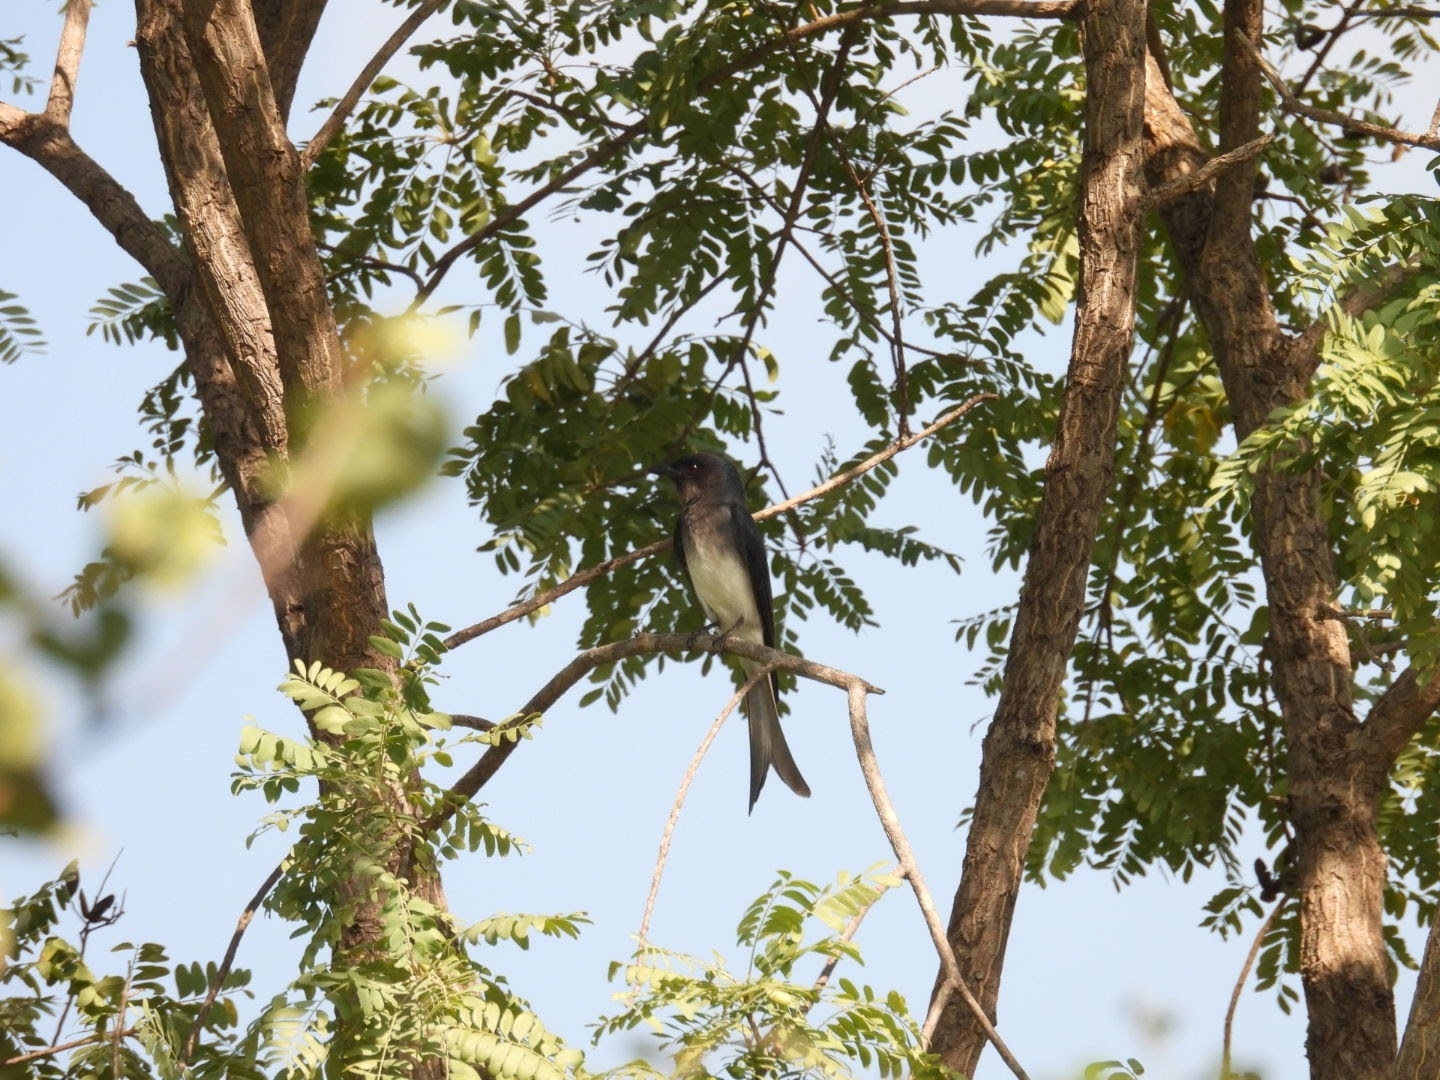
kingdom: Animalia
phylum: Chordata
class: Aves
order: Passeriformes
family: Dicruridae
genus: Dicrurus
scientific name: Dicrurus caerulescens
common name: White-bellied drongo
